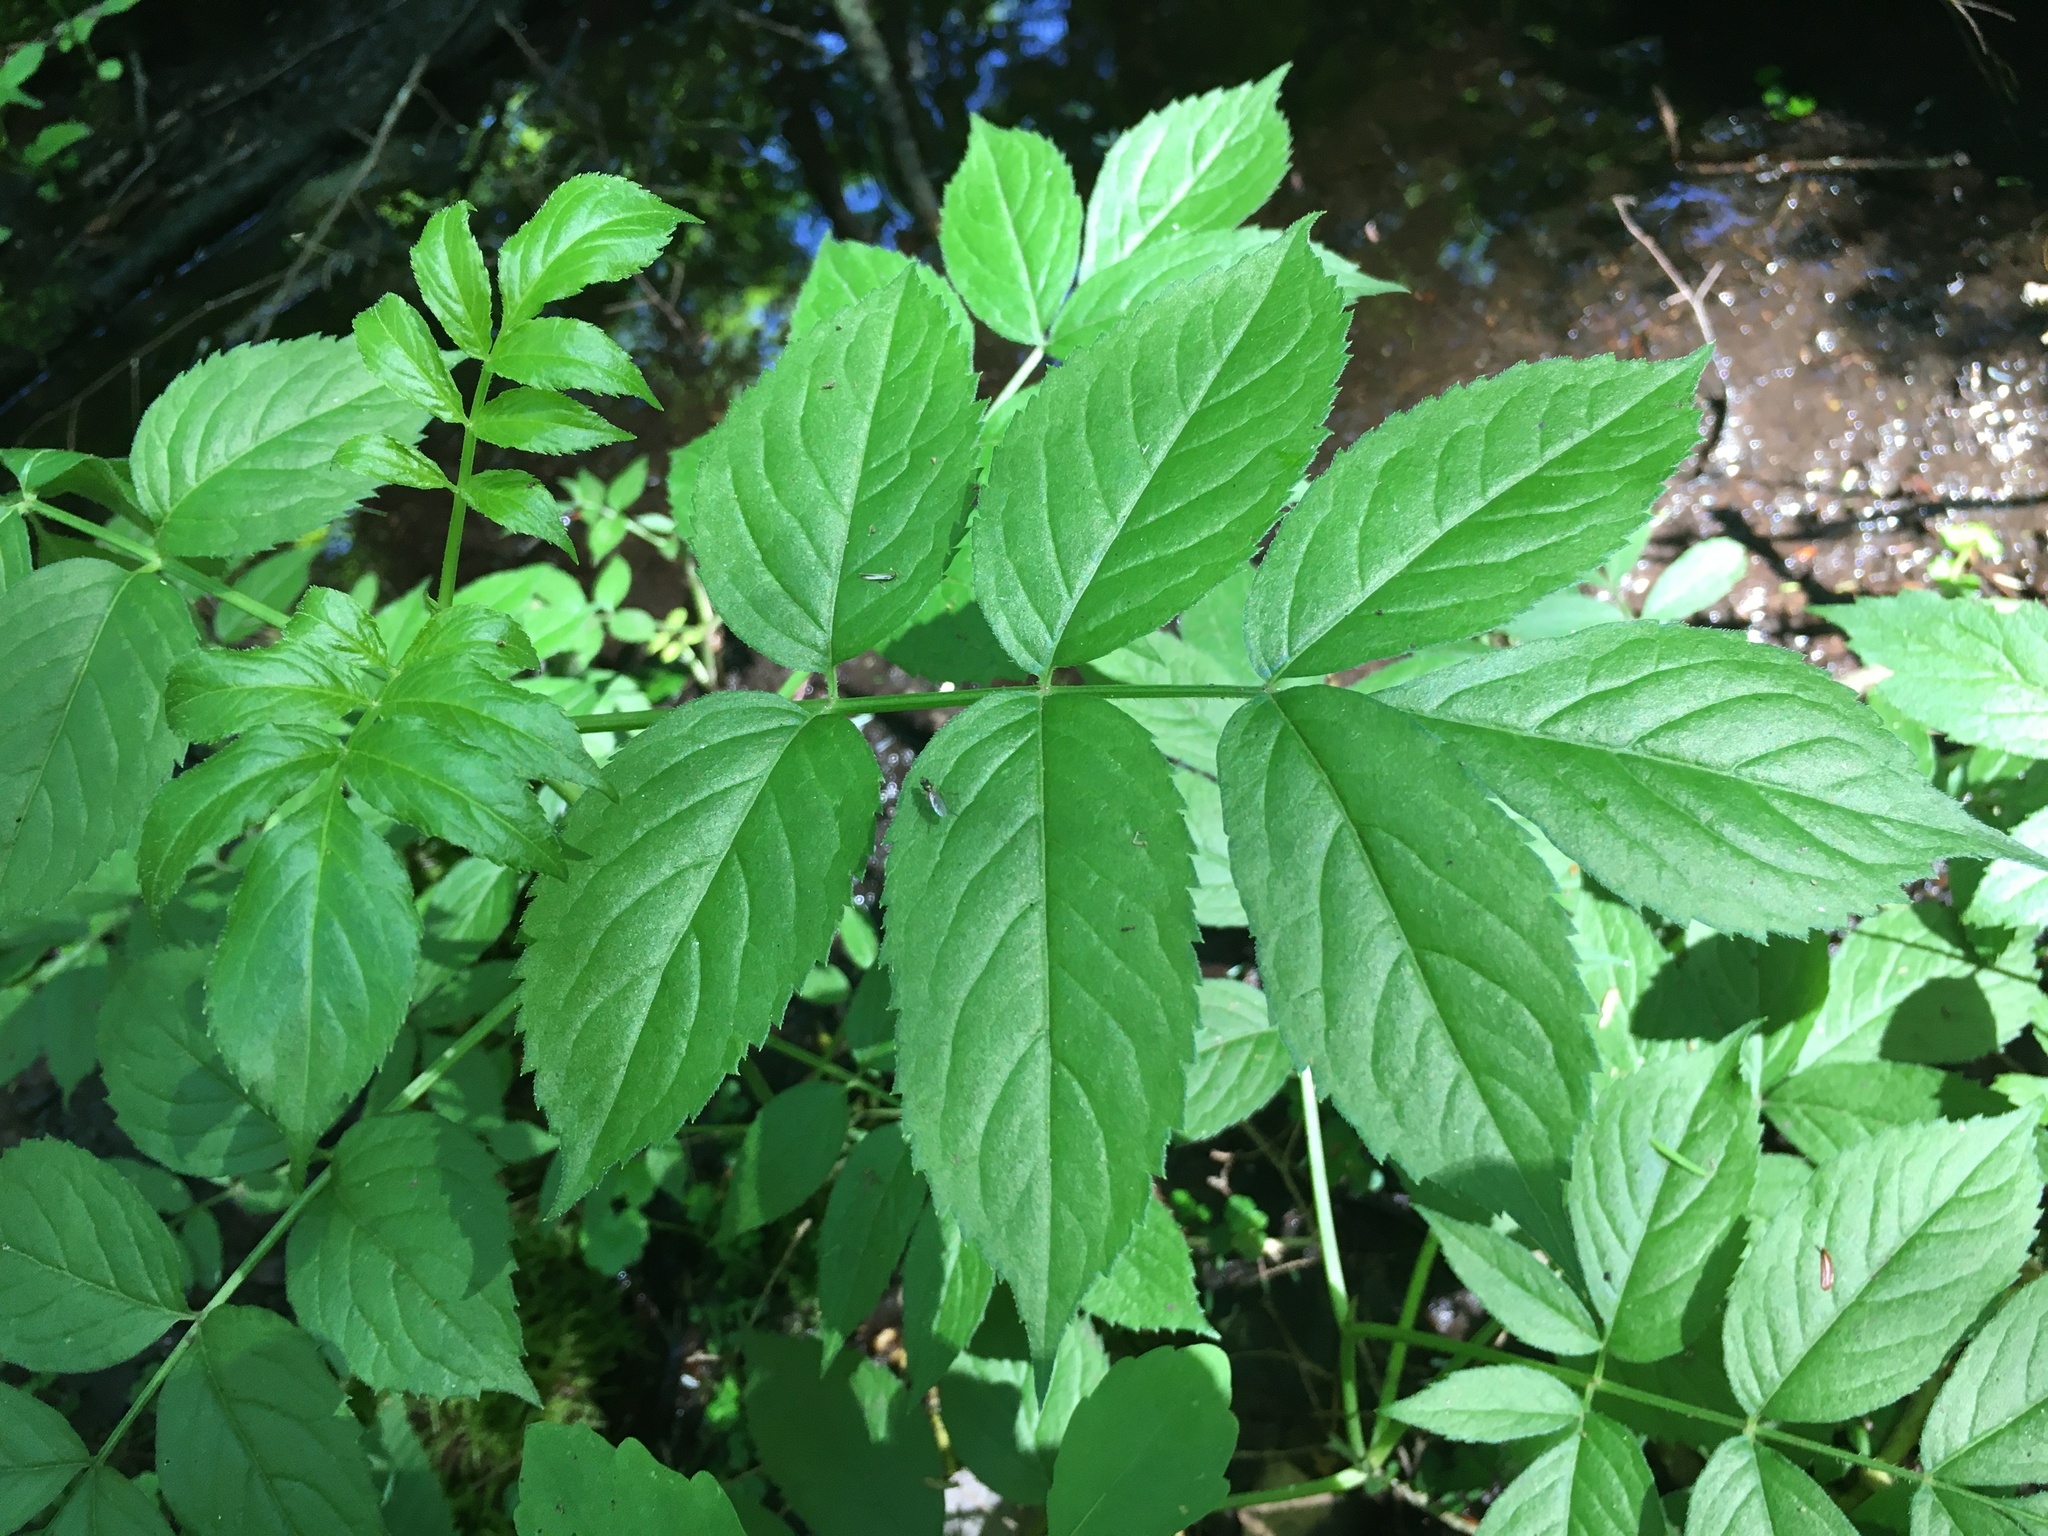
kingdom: Plantae
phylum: Tracheophyta
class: Magnoliopsida
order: Dipsacales
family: Viburnaceae
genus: Sambucus
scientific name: Sambucus canadensis
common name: American elder
